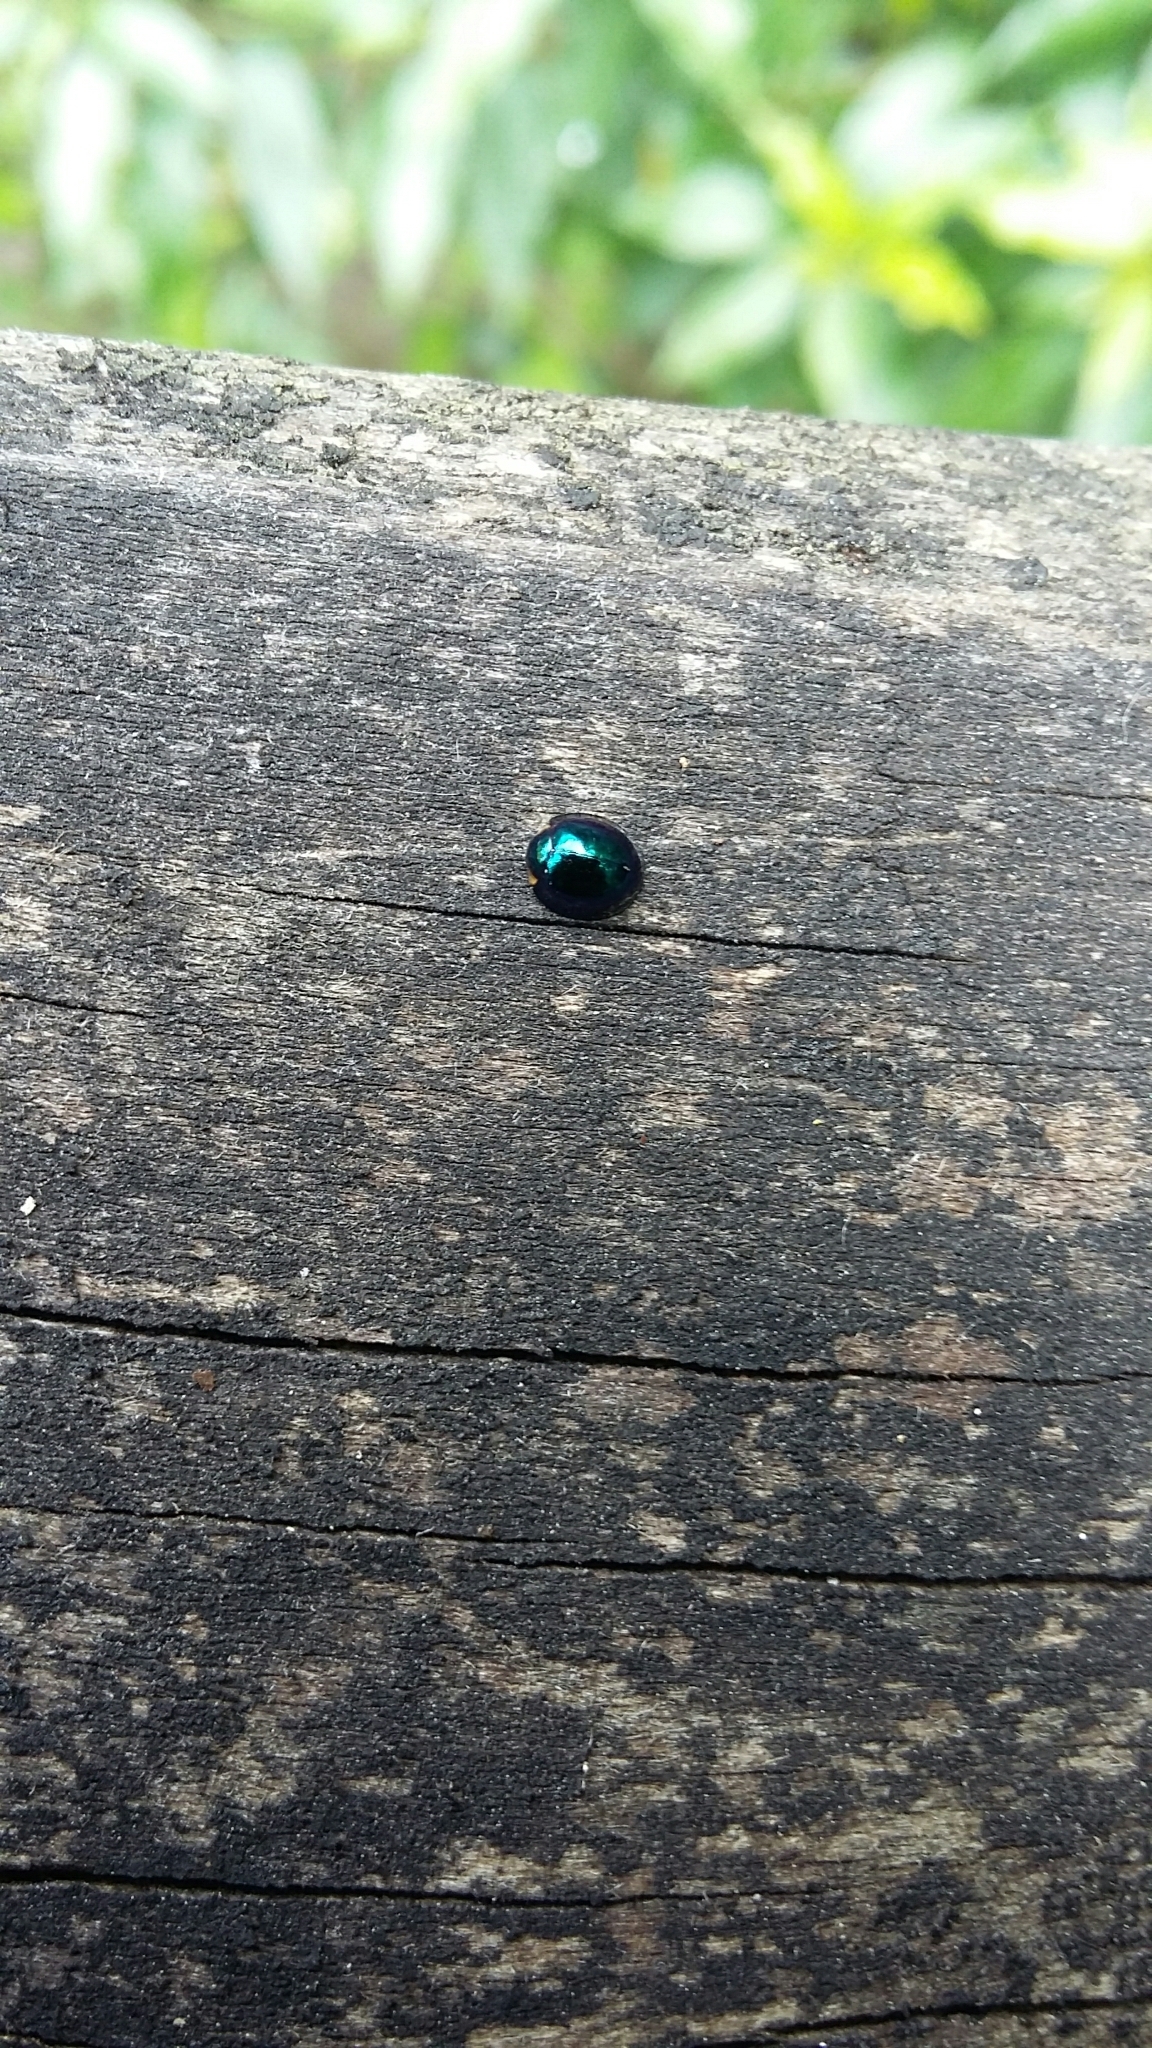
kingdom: Animalia
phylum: Arthropoda
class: Insecta
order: Coleoptera
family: Coccinellidae
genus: Halmus
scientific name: Halmus chalybeus
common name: Steel blue ladybird beetle
